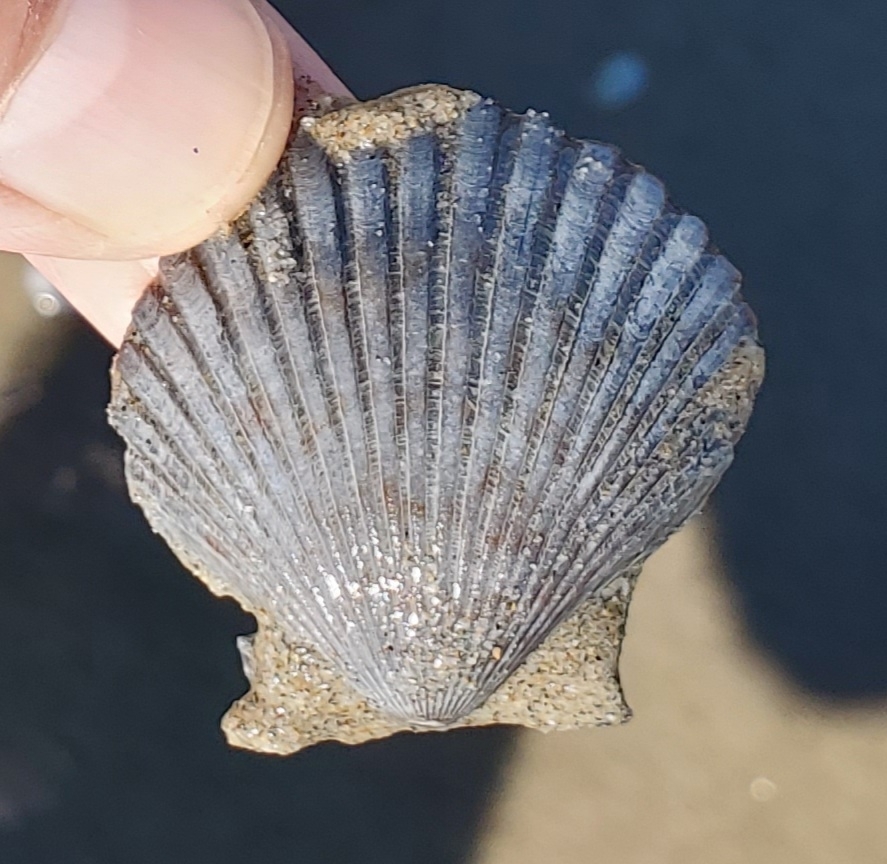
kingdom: Animalia
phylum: Mollusca
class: Bivalvia
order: Pectinida
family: Pectinidae
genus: Argopecten
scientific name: Argopecten ventricosus
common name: Catarina scallop
